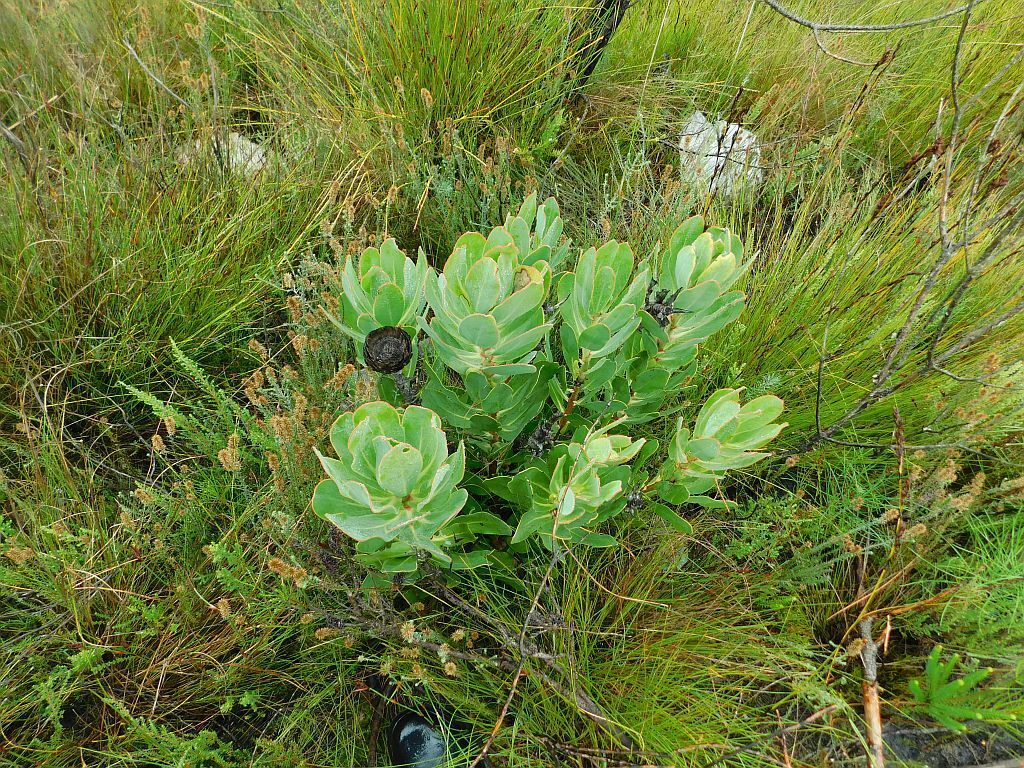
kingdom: Plantae
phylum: Tracheophyta
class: Magnoliopsida
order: Proteales
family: Proteaceae
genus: Protea
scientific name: Protea speciosa
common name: Brown-beard sugarbush
